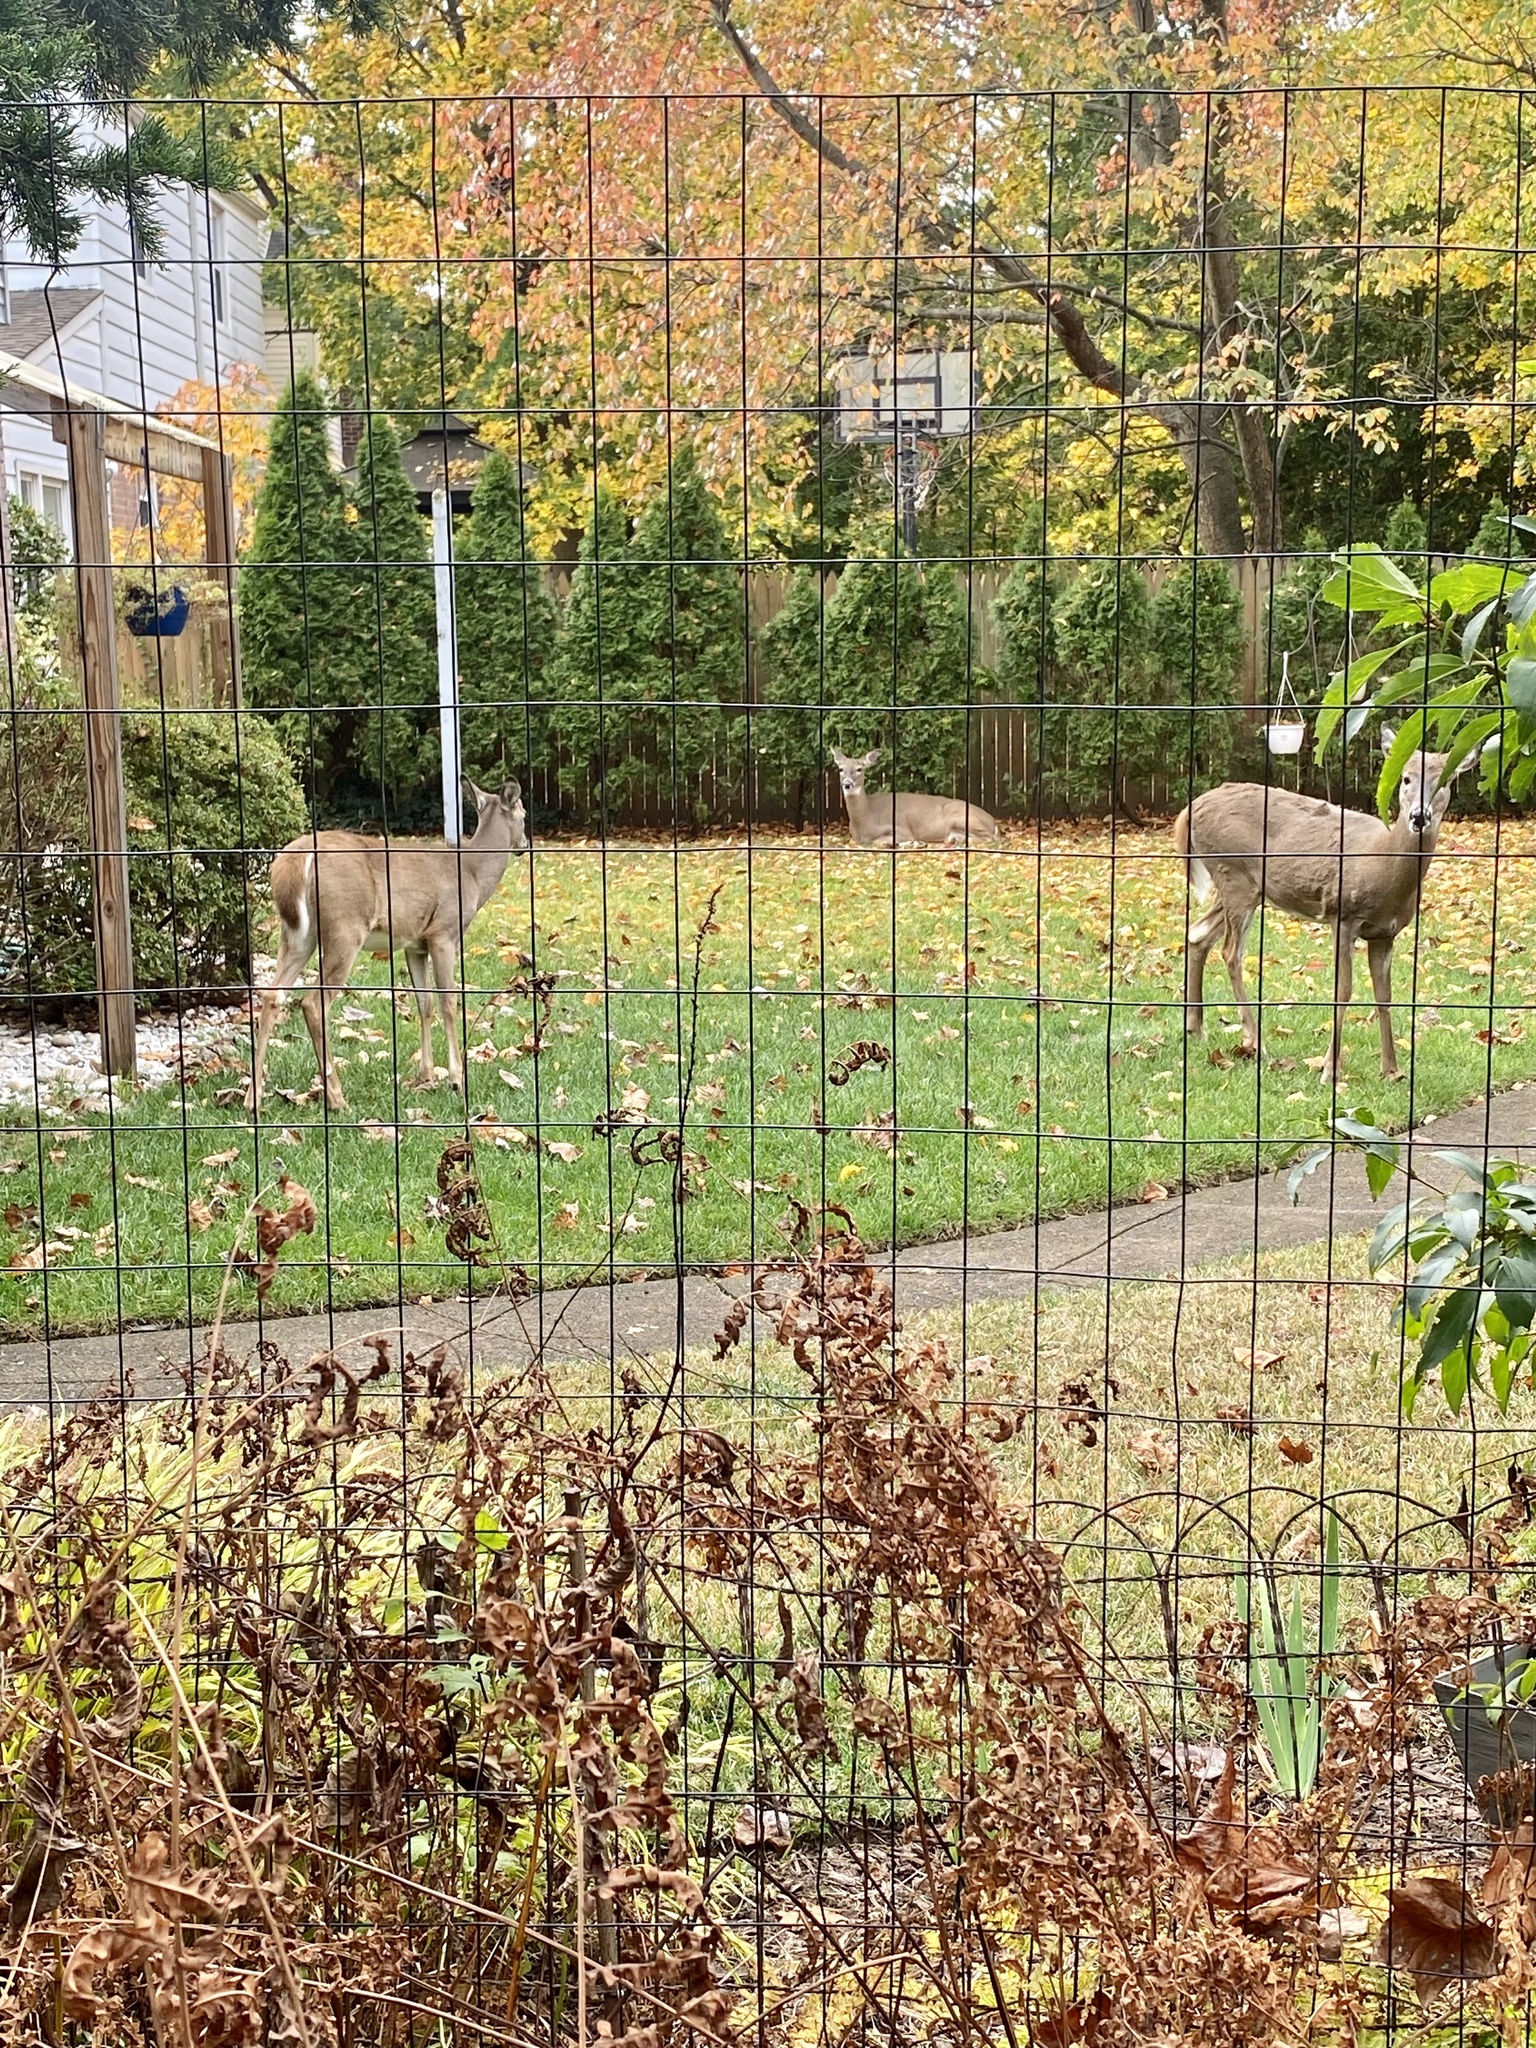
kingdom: Animalia
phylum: Chordata
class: Mammalia
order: Artiodactyla
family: Cervidae
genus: Odocoileus
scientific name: Odocoileus virginianus
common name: White-tailed deer
